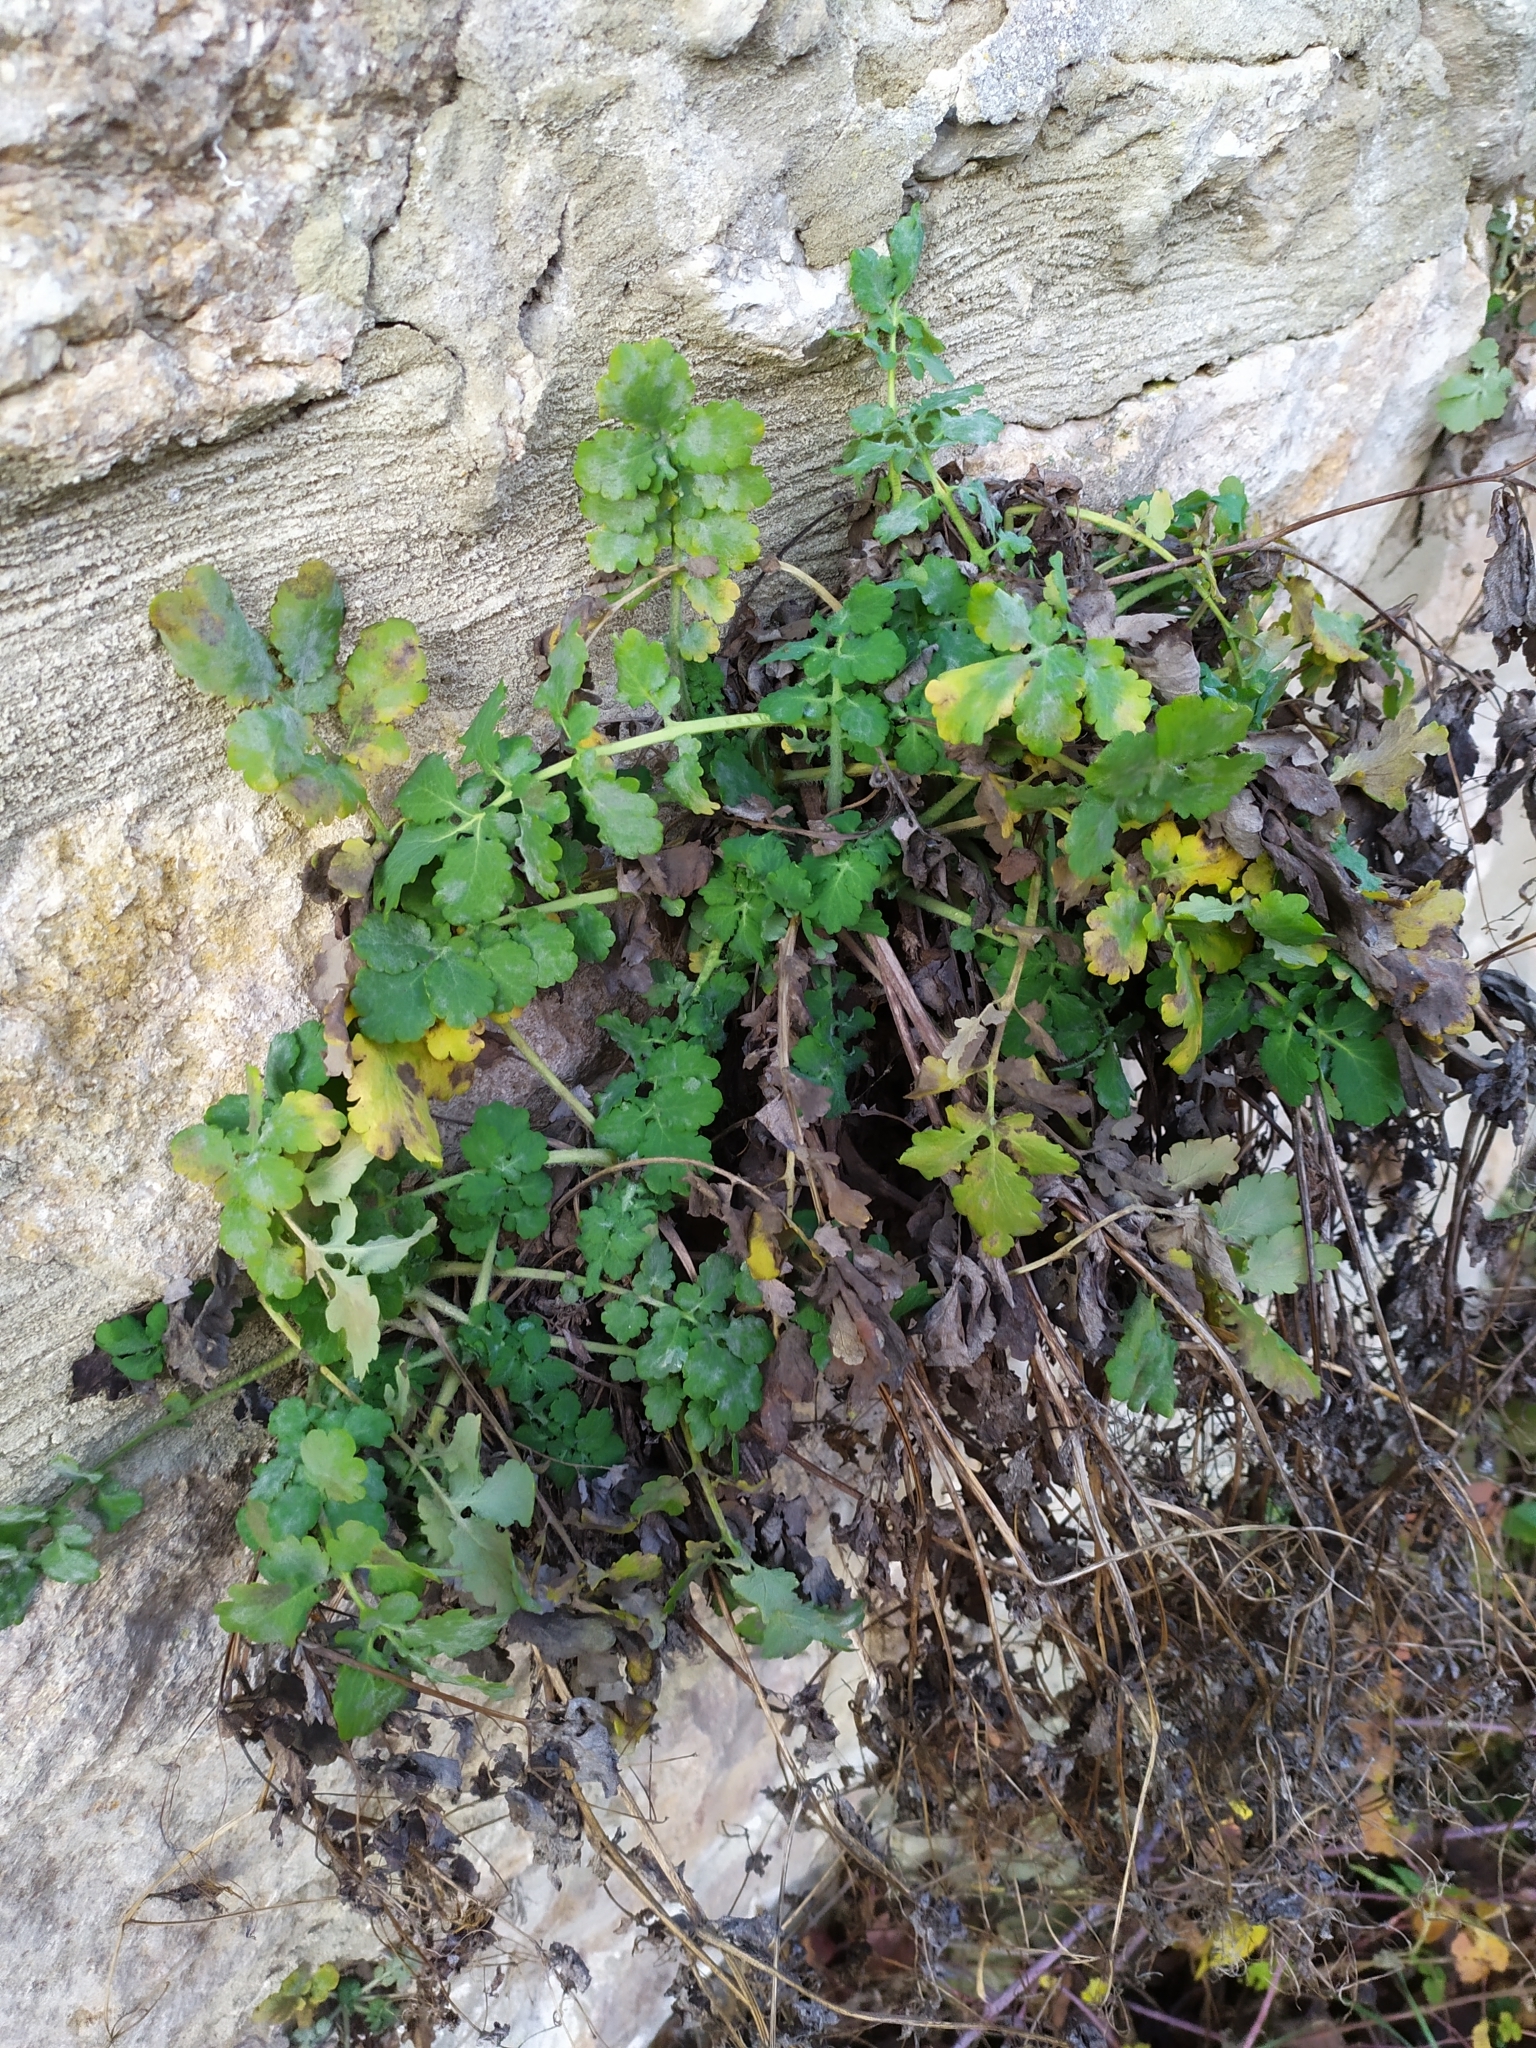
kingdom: Plantae
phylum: Tracheophyta
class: Magnoliopsida
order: Ranunculales
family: Papaveraceae
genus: Chelidonium
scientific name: Chelidonium majus
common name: Greater celandine
